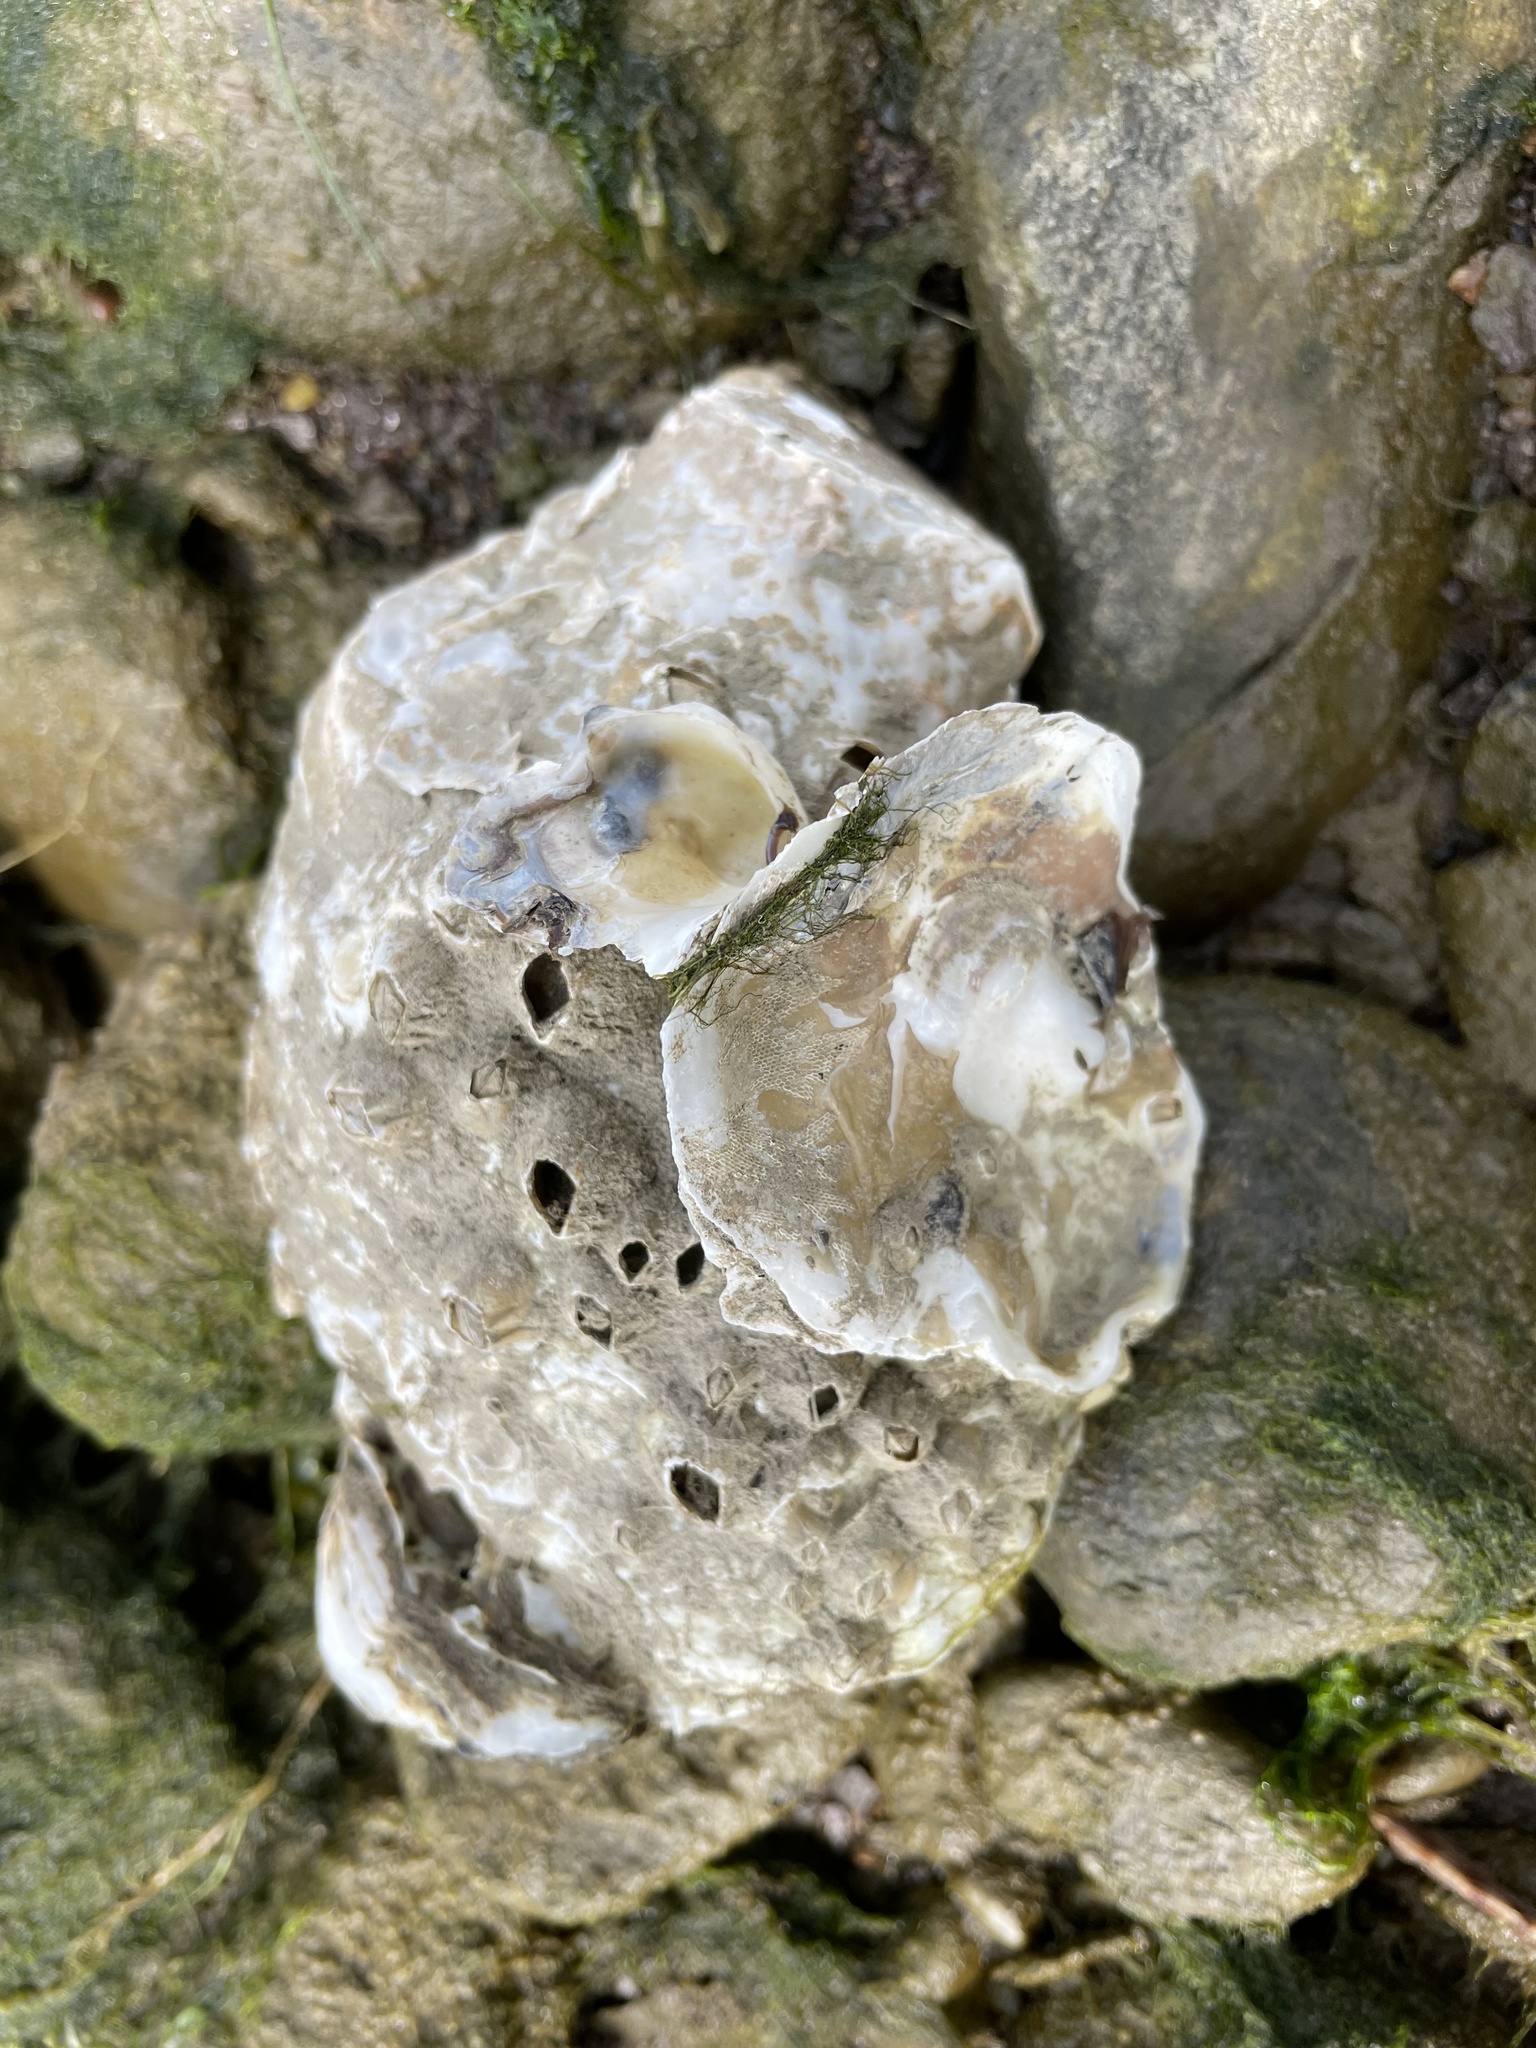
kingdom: Animalia
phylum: Mollusca
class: Bivalvia
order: Ostreida
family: Ostreidae
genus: Crassostrea
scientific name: Crassostrea virginica
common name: American oyster
